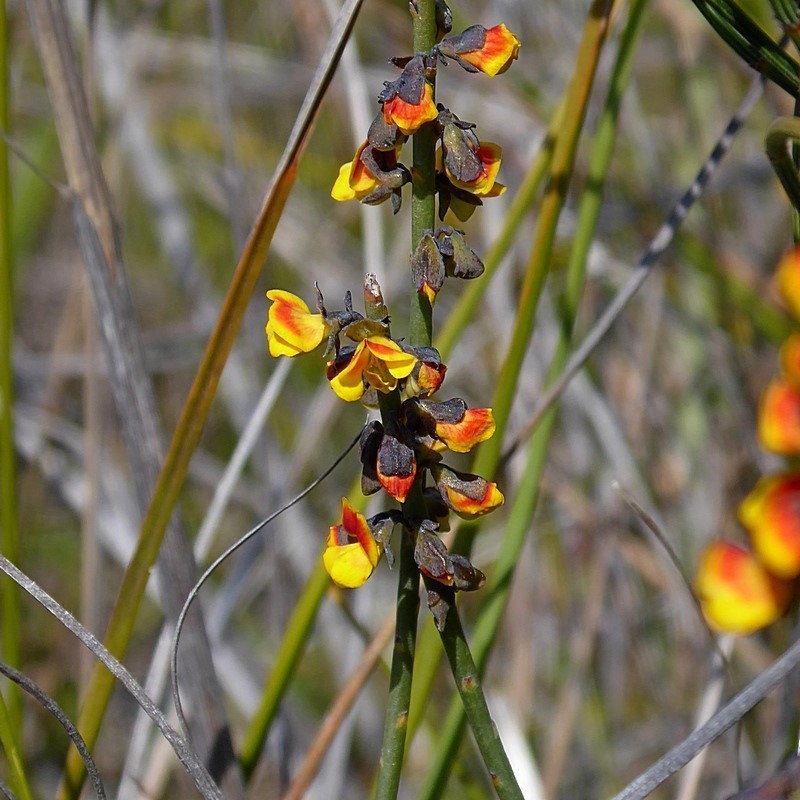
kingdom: Plantae
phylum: Tracheophyta
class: Magnoliopsida
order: Fabales
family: Fabaceae
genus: Sphaerolobium
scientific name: Sphaerolobium minus
